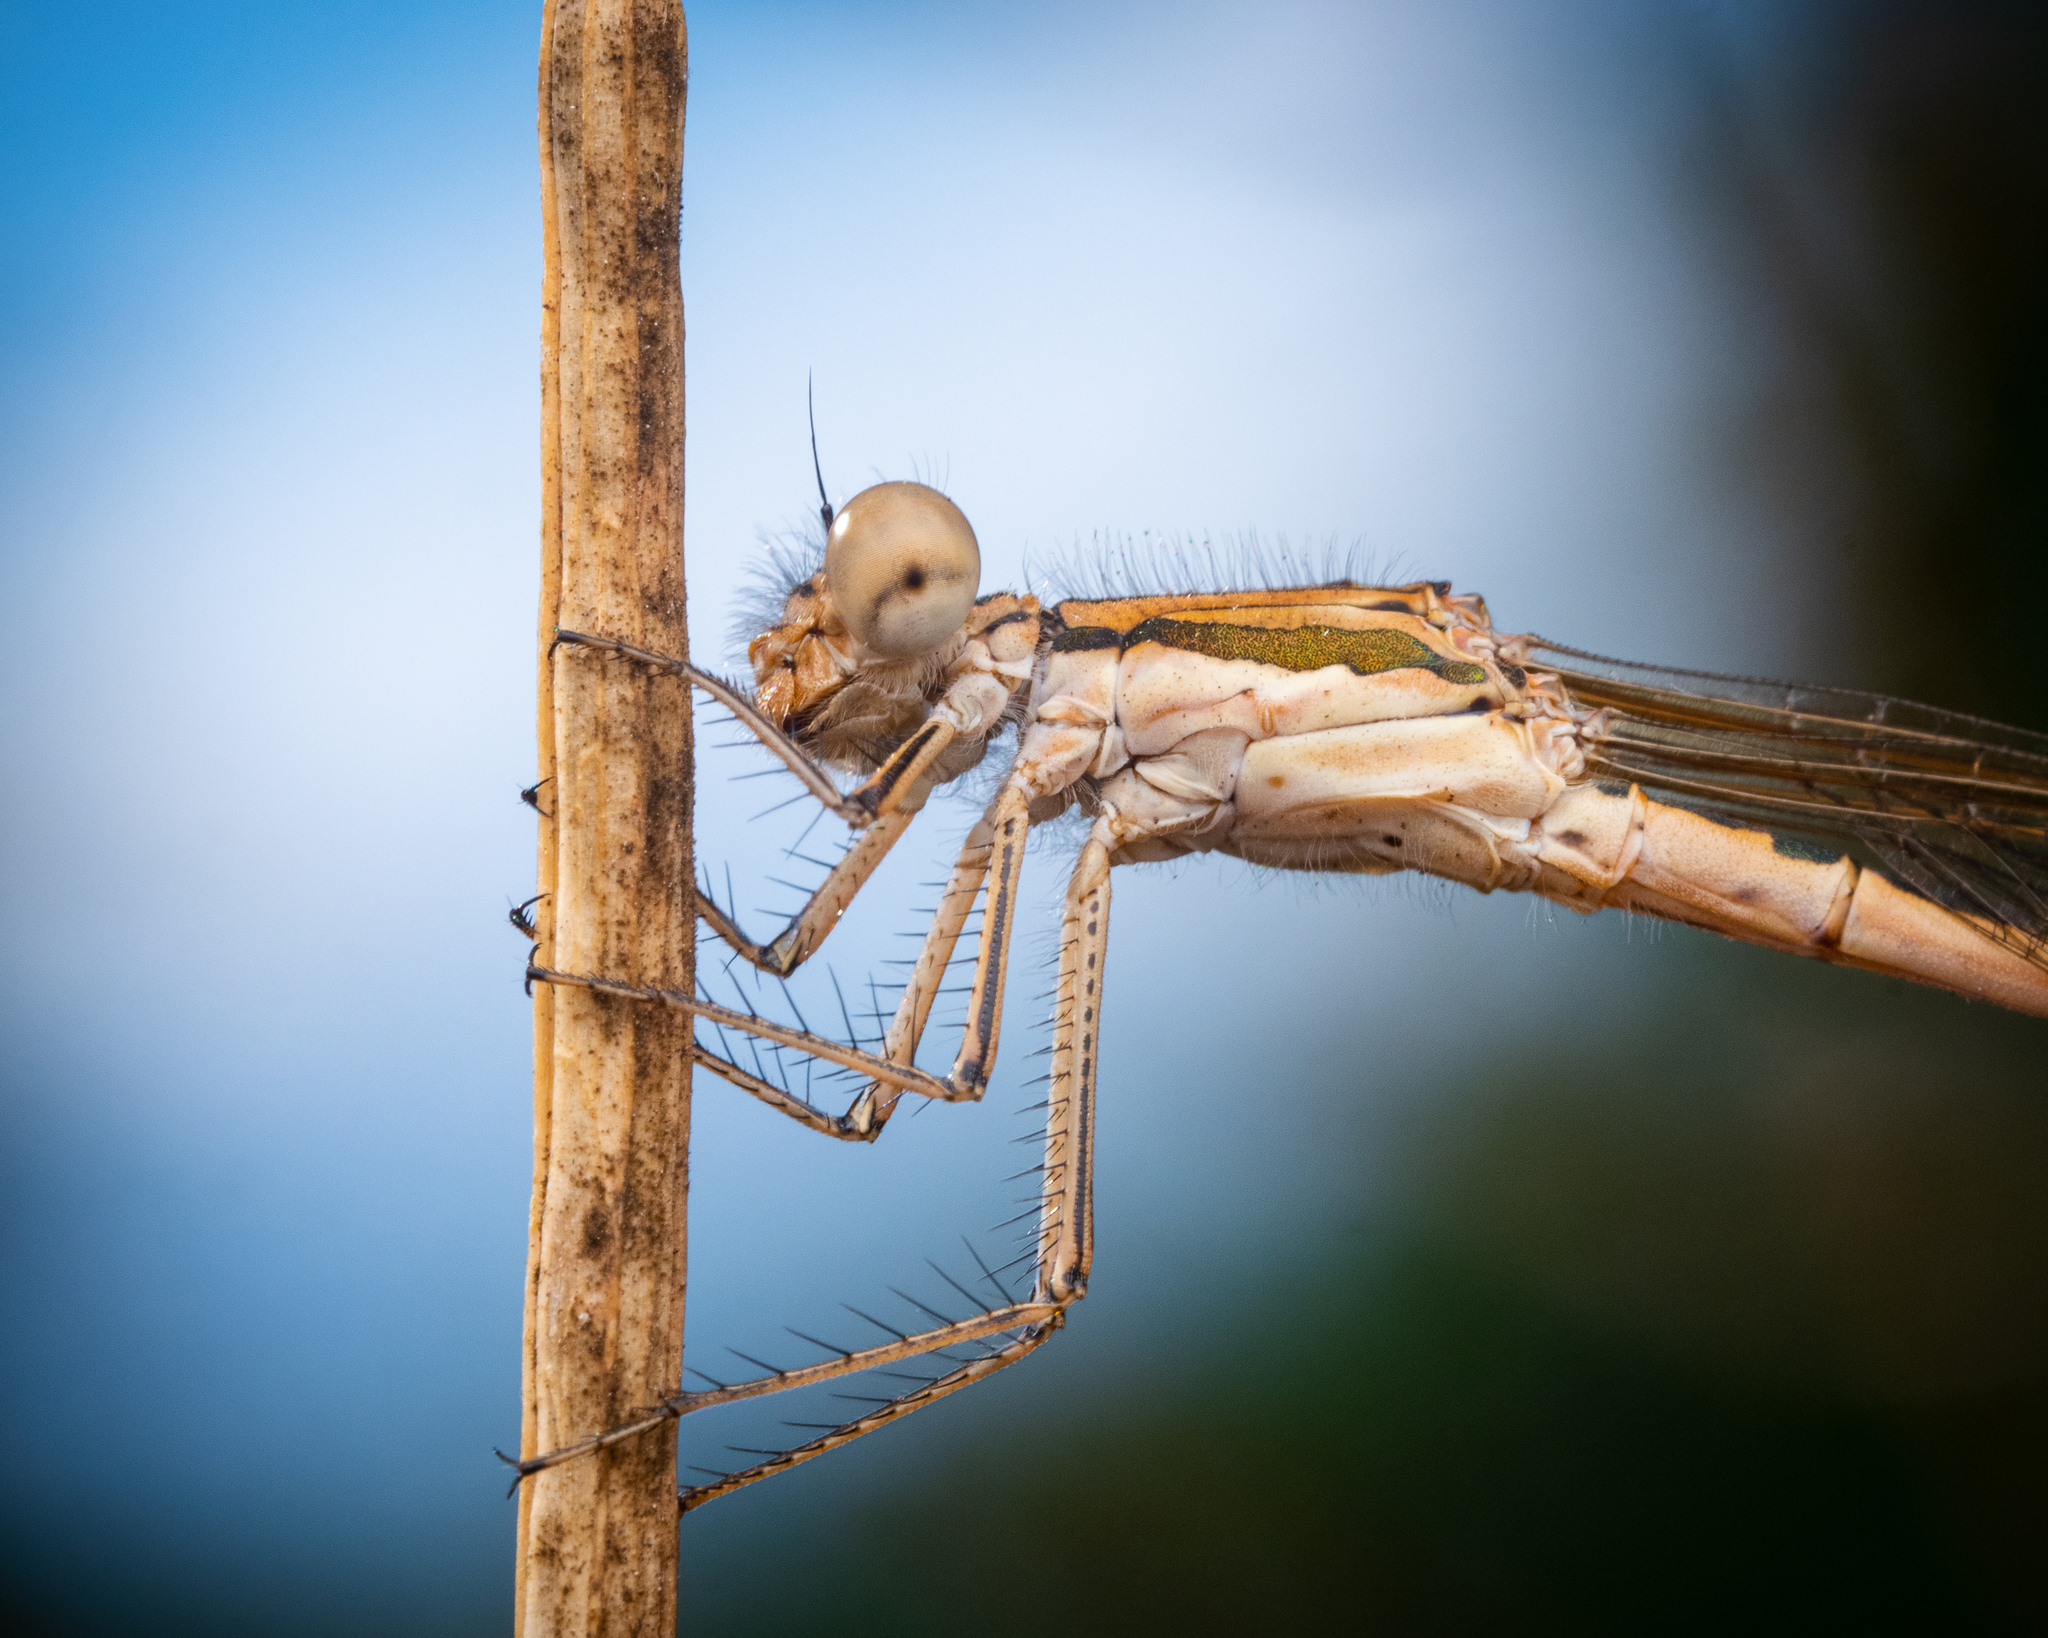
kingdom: Animalia
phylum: Arthropoda
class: Insecta
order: Odonata
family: Lestidae
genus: Sympecma
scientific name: Sympecma fusca
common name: Common winter damsel
